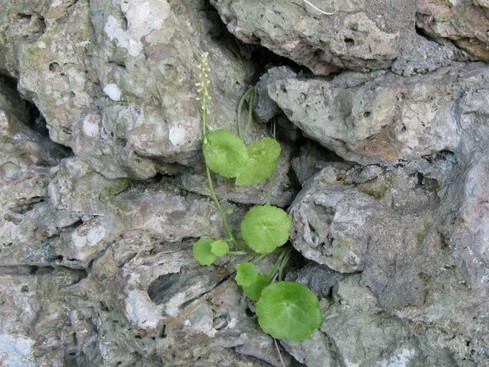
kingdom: Plantae
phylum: Tracheophyta
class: Magnoliopsida
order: Saxifragales
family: Crassulaceae
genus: Umbilicus
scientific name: Umbilicus rupestris
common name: Navelwort
